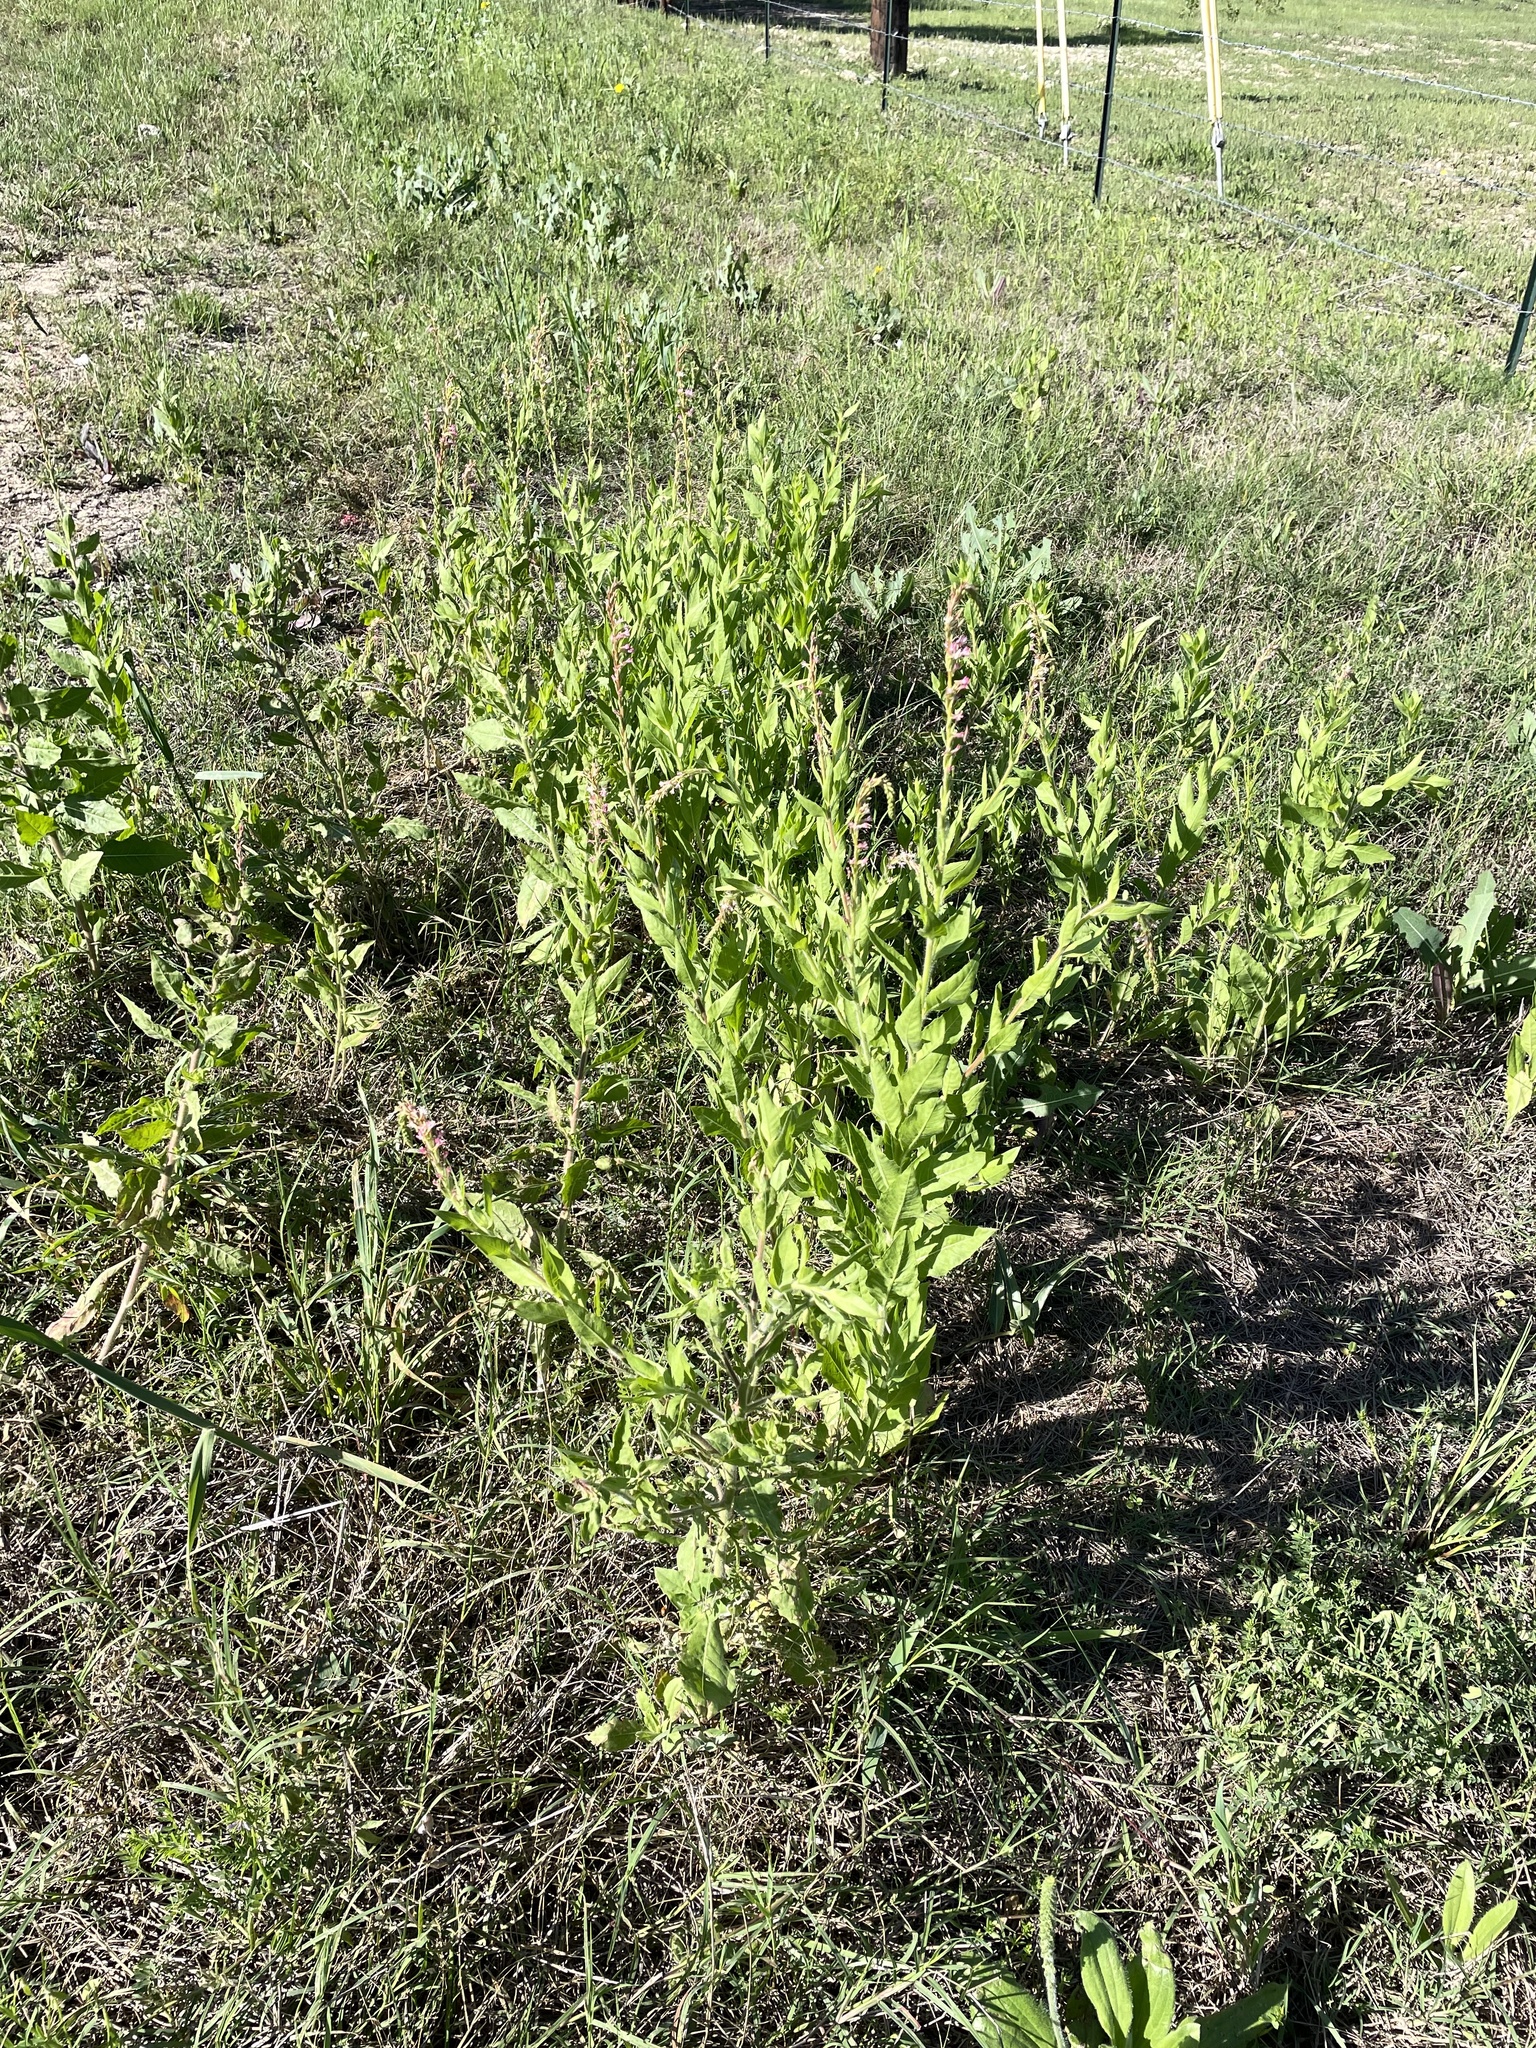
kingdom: Plantae
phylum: Tracheophyta
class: Magnoliopsida
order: Myrtales
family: Onagraceae
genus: Oenothera
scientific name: Oenothera curtiflora
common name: Velvetweed
